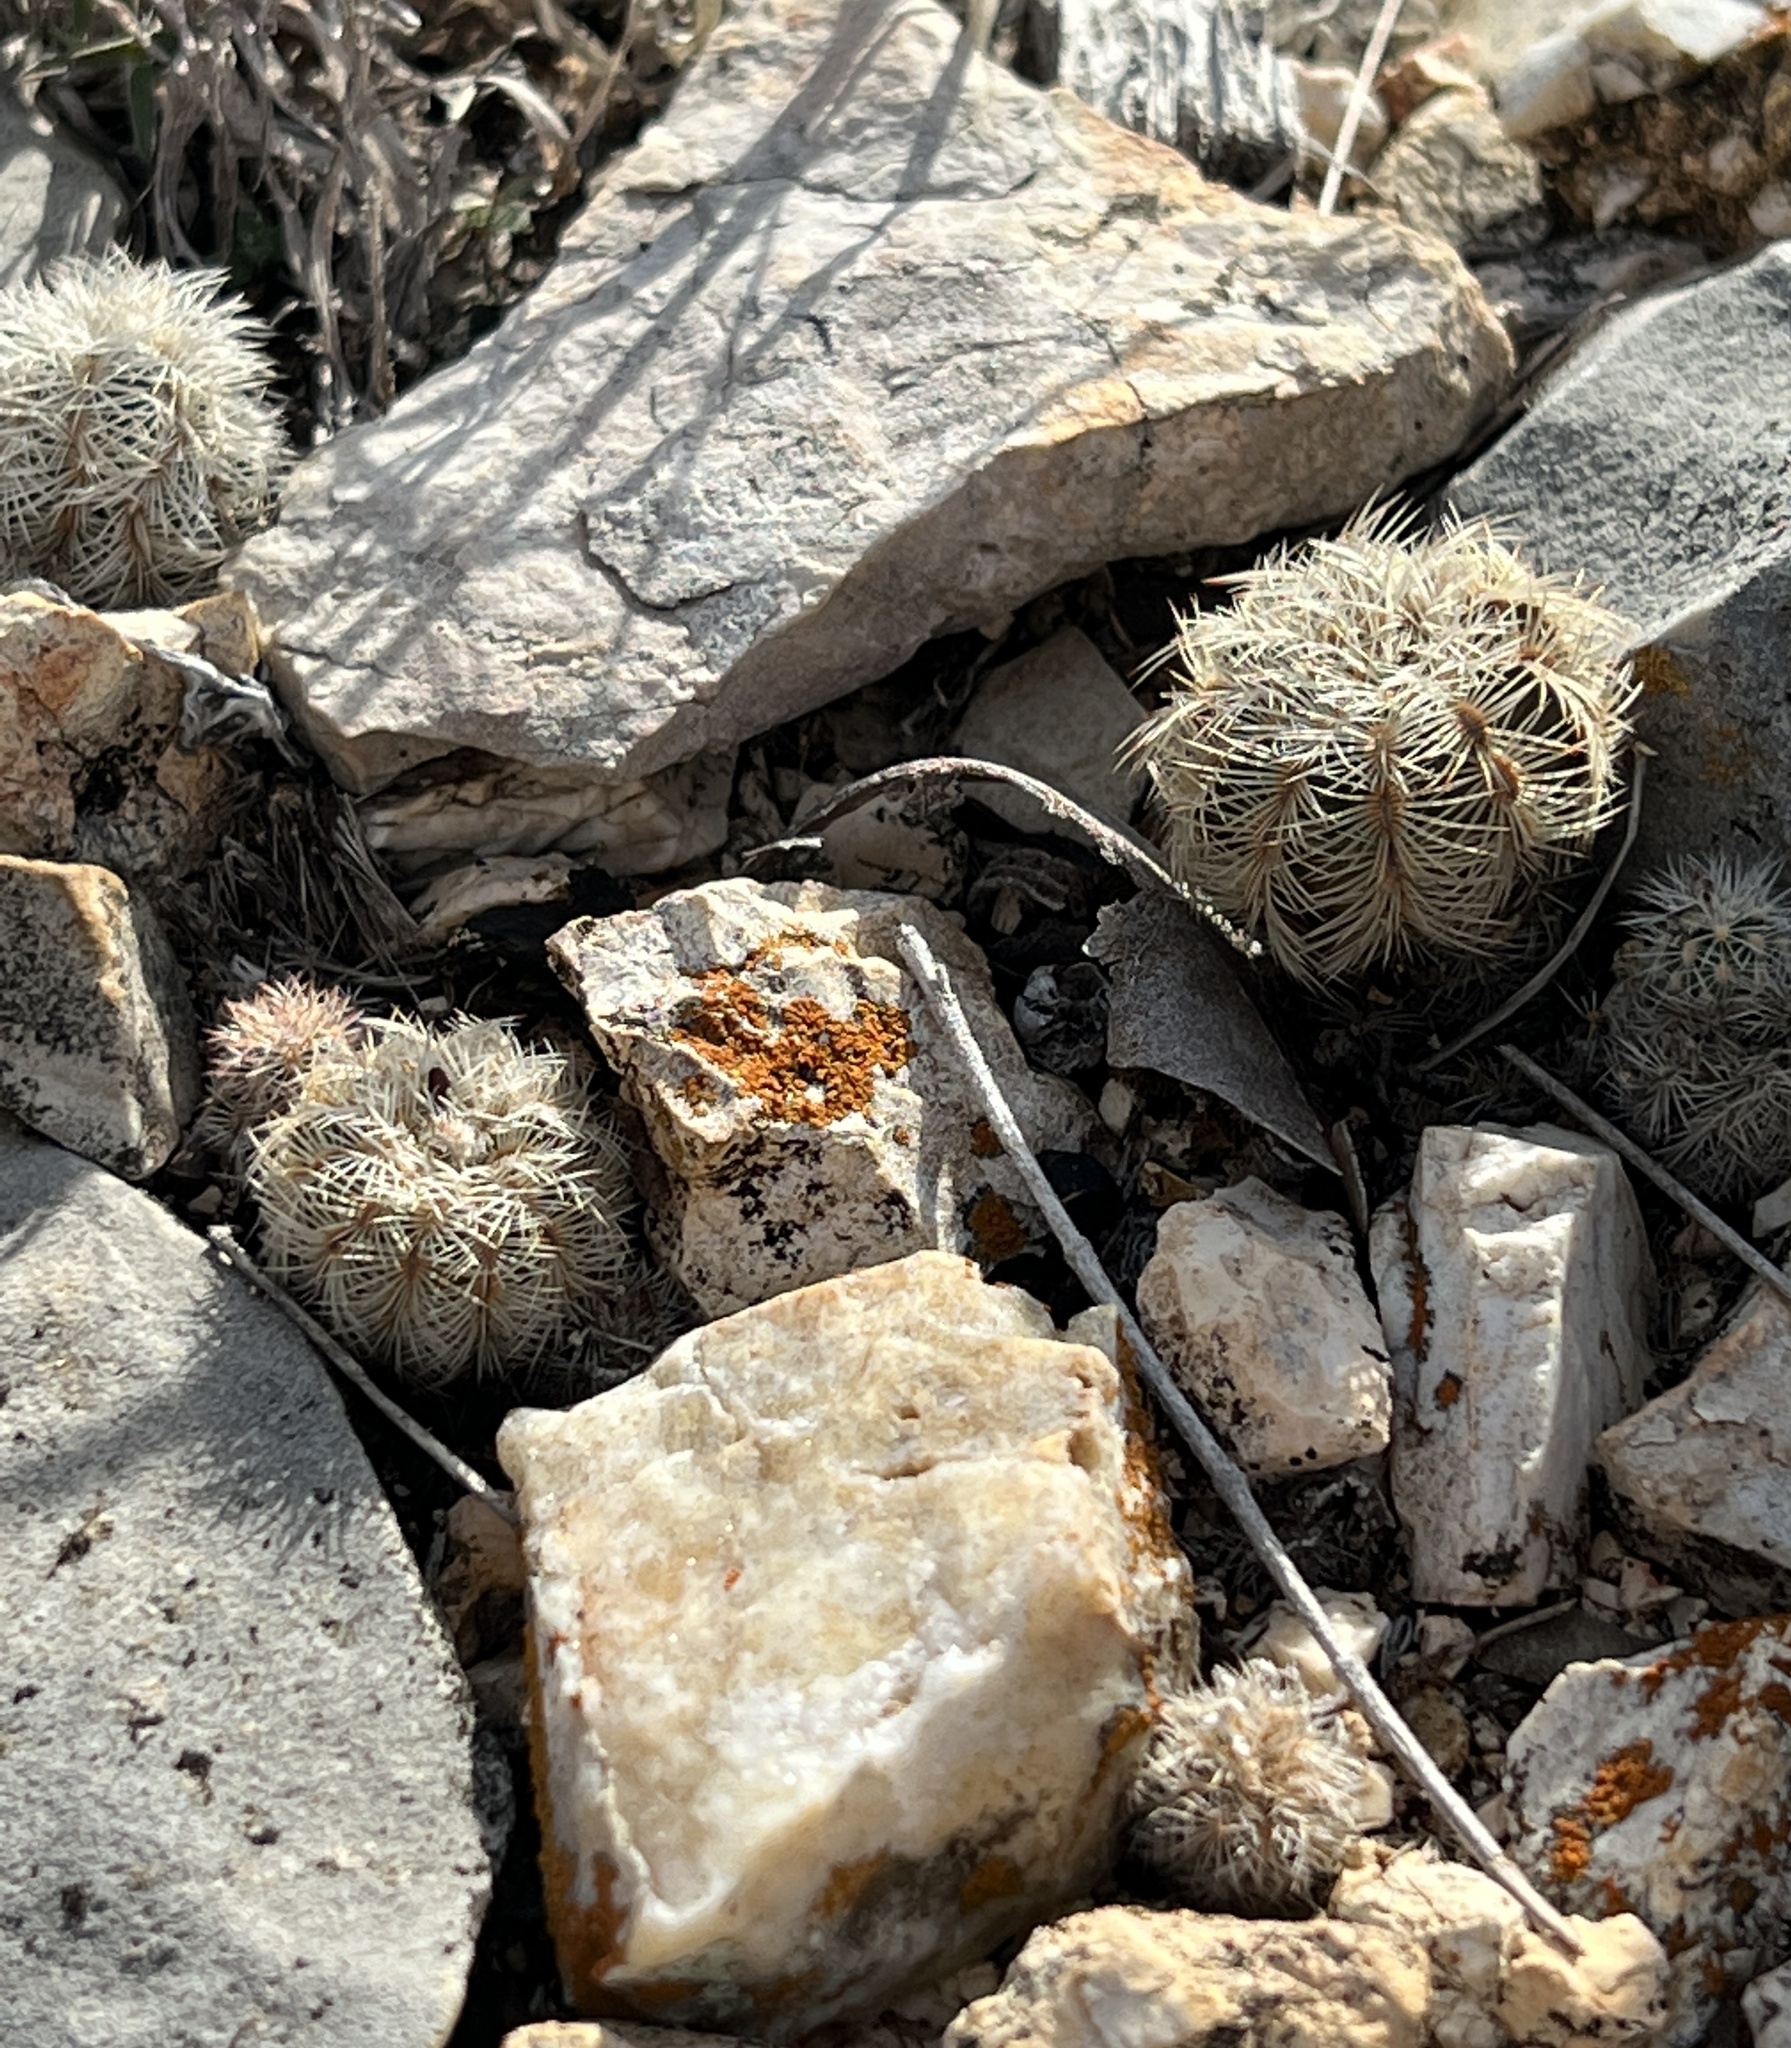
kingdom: Plantae
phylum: Tracheophyta
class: Magnoliopsida
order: Caryophyllales
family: Cactaceae
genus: Echinocereus
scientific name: Echinocereus reichenbachii
